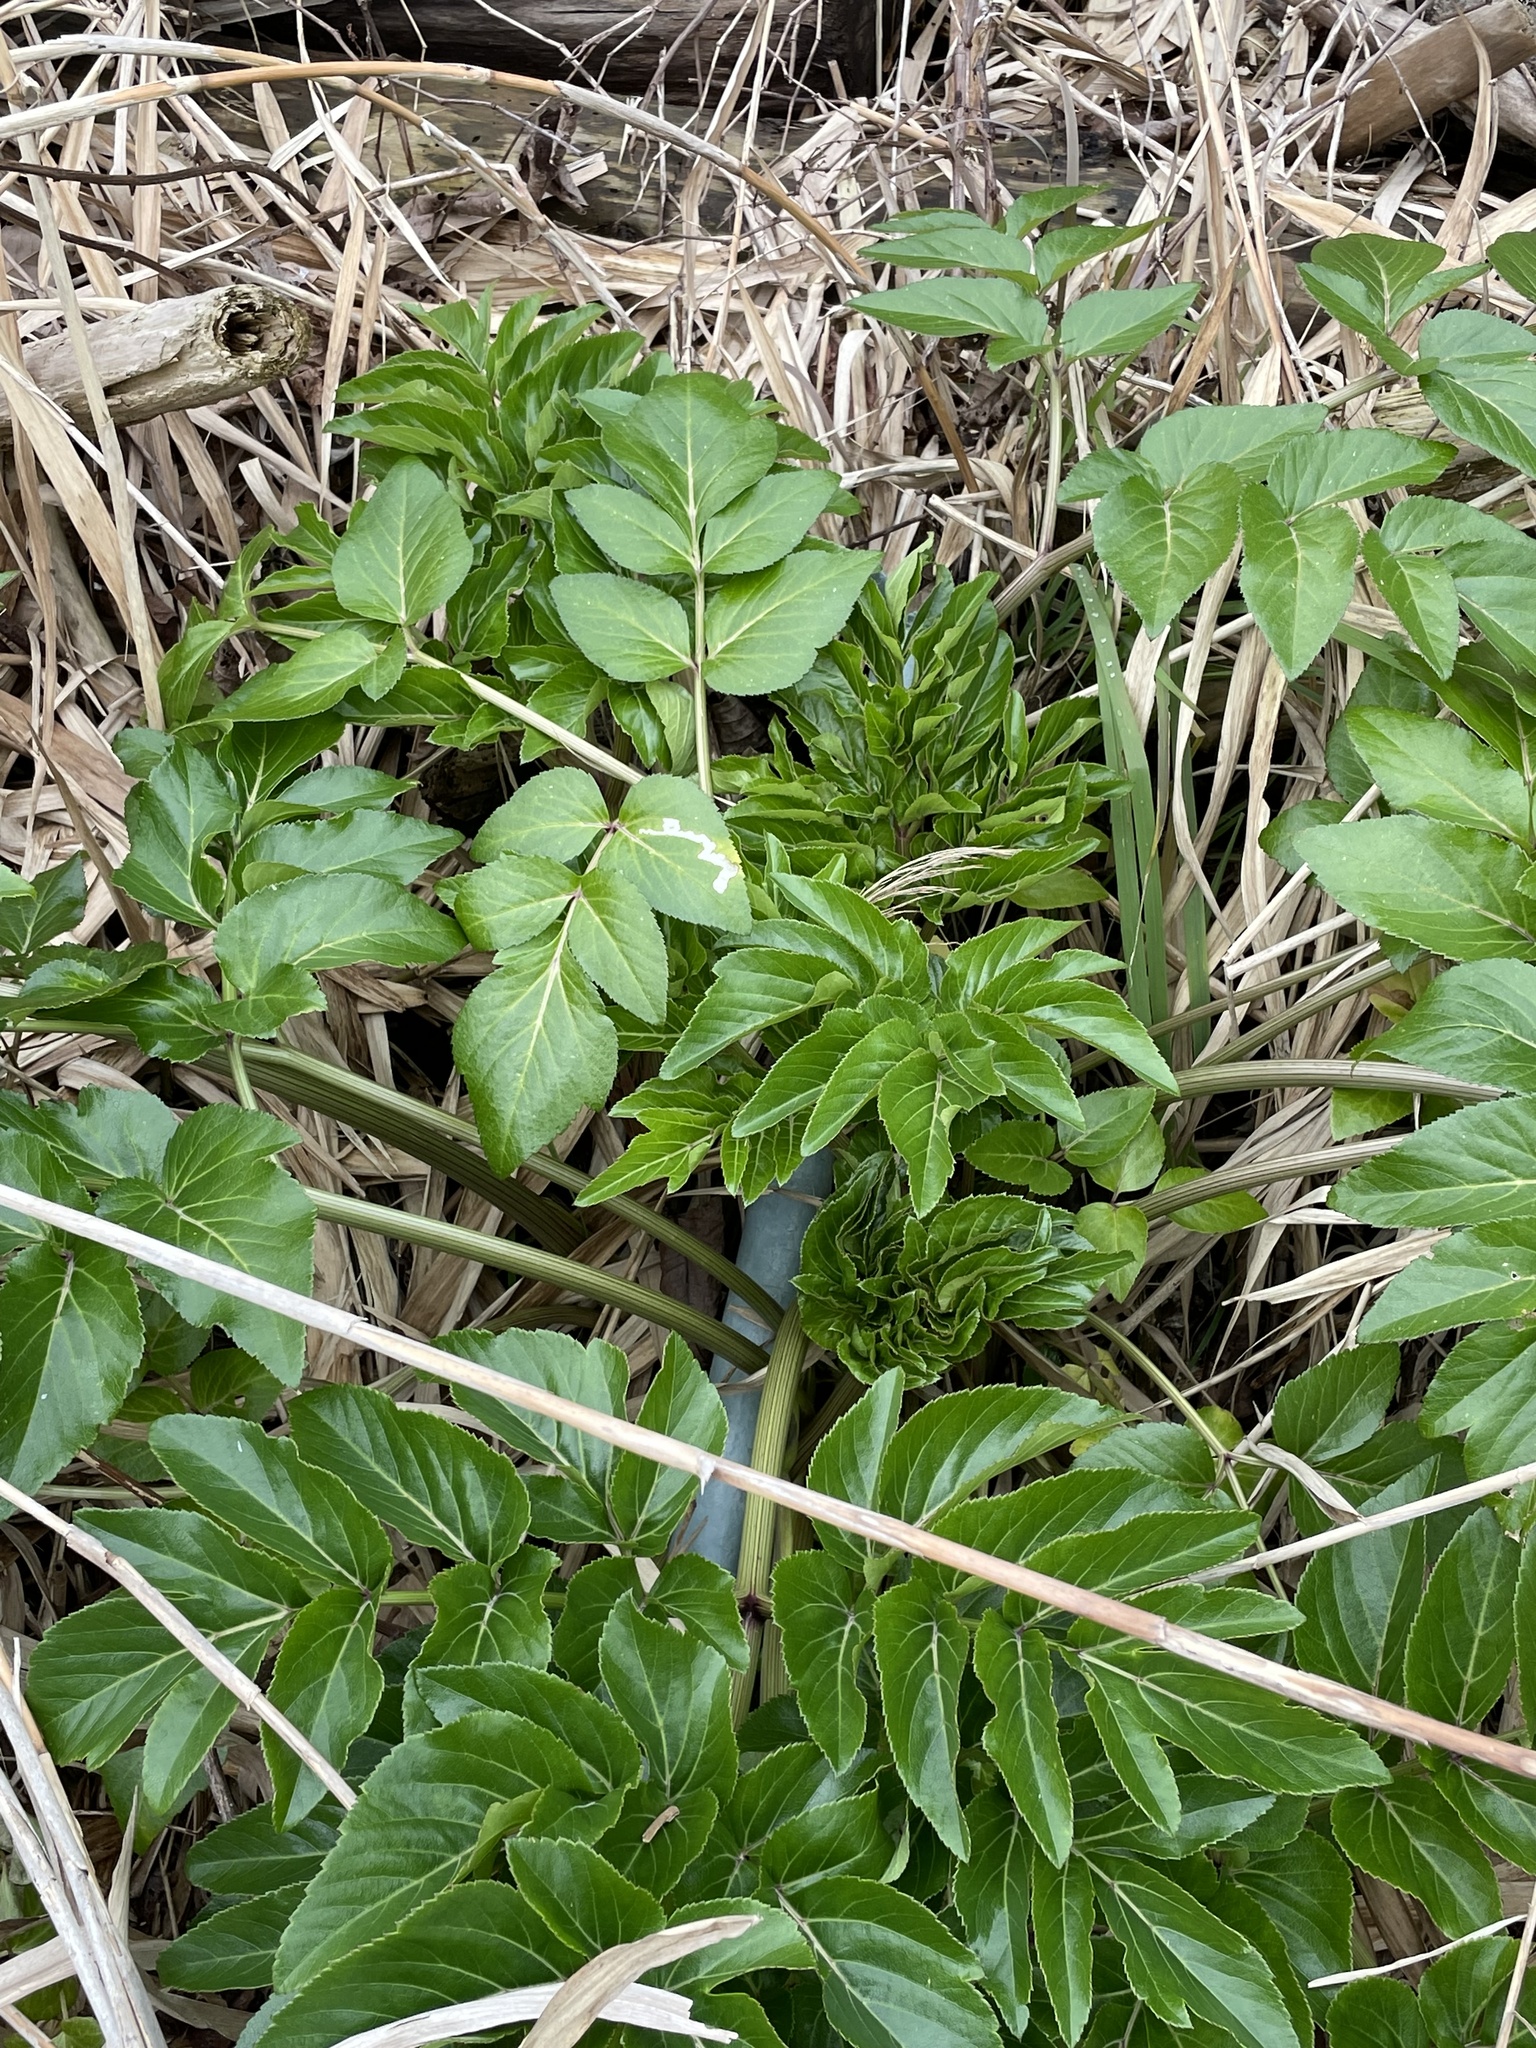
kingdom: Plantae
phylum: Tracheophyta
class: Magnoliopsida
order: Apiales
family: Apiaceae
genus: Angelica
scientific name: Angelica japonica
